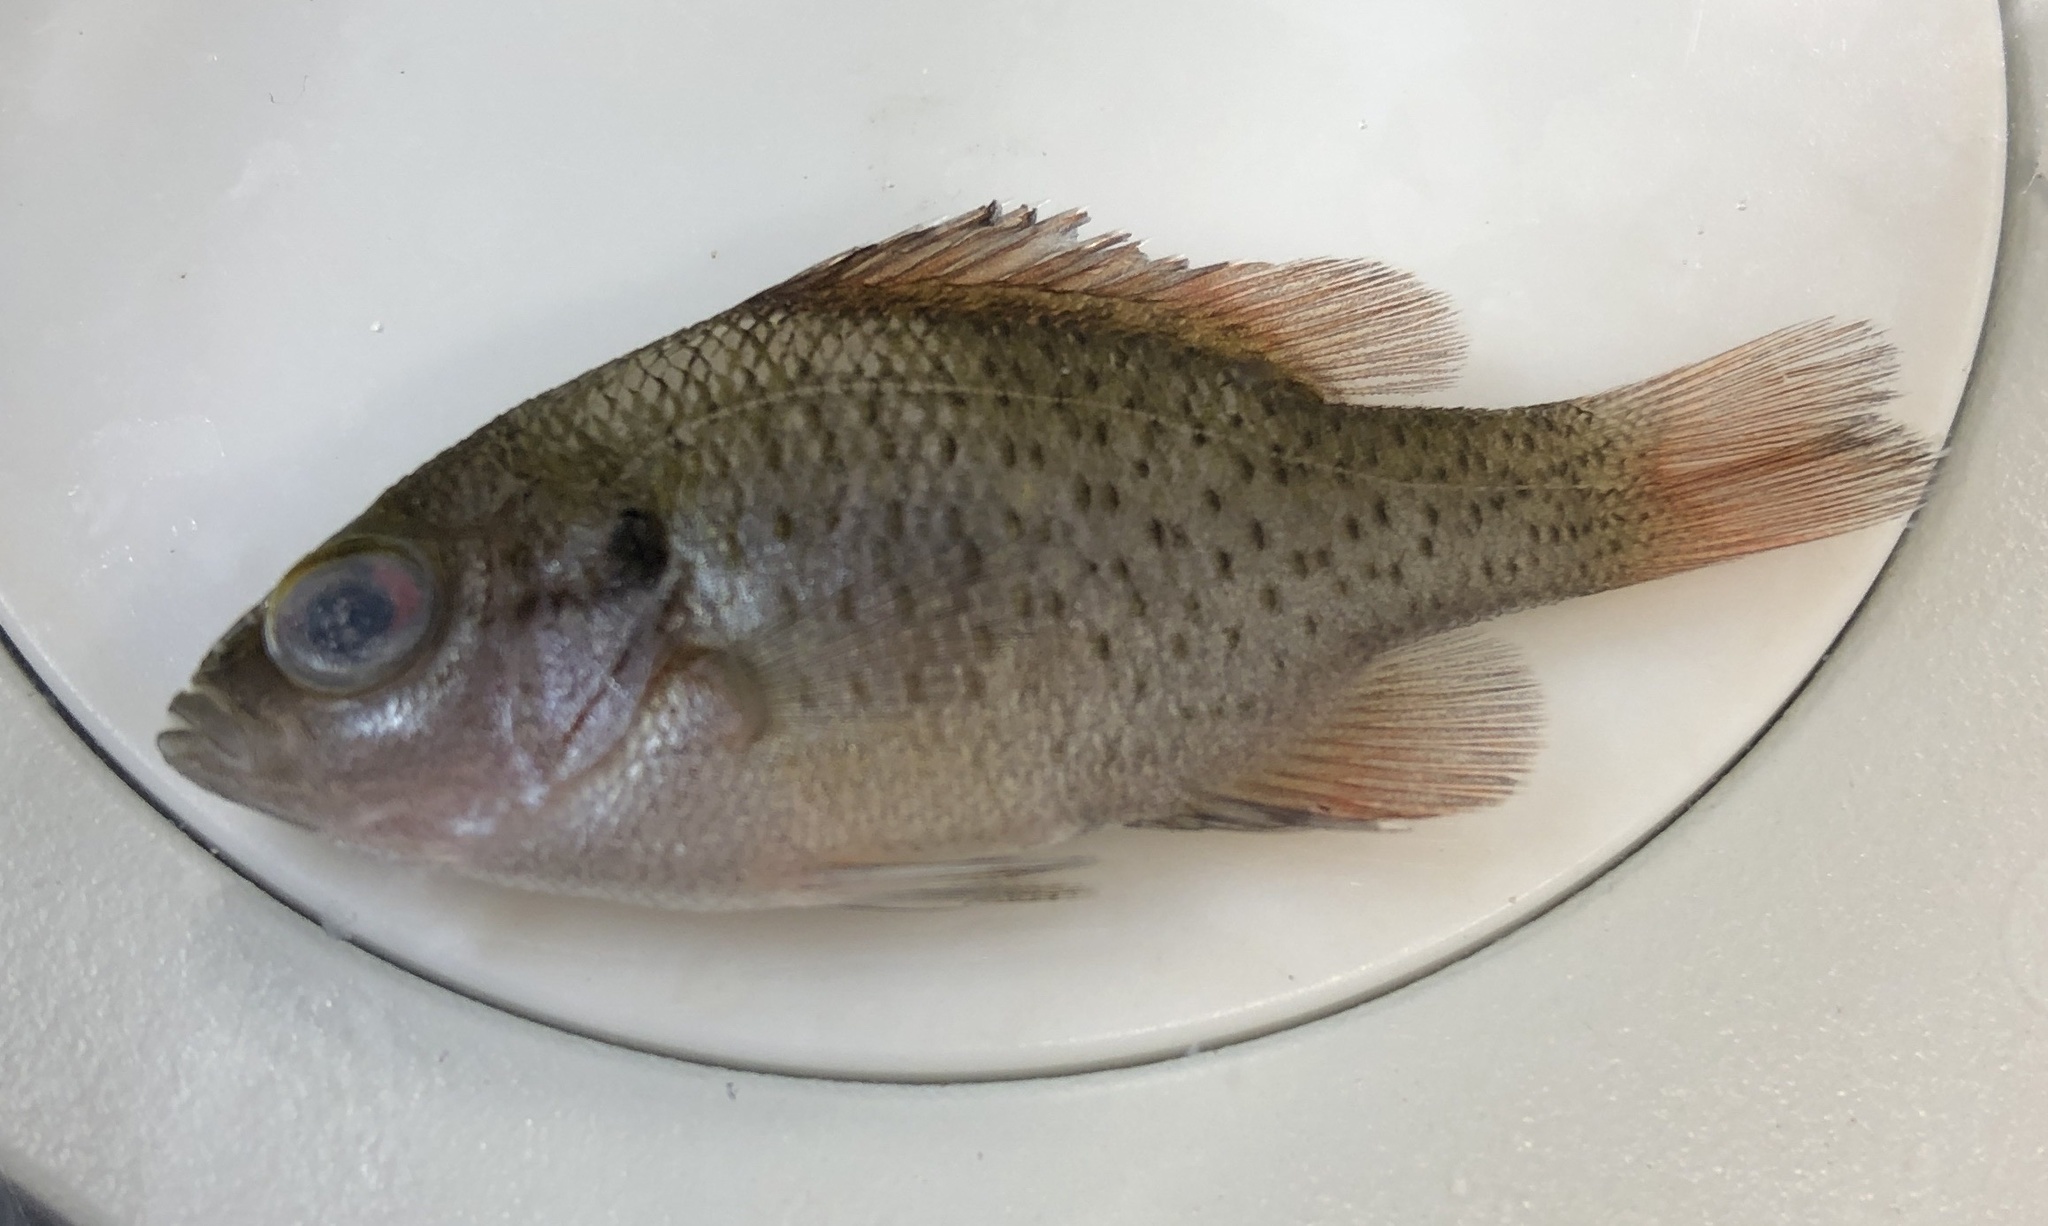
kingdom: Animalia
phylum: Chordata
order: Perciformes
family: Centrarchidae
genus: Lepomis
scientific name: Lepomis miniatus
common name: Redspotted sunfish
